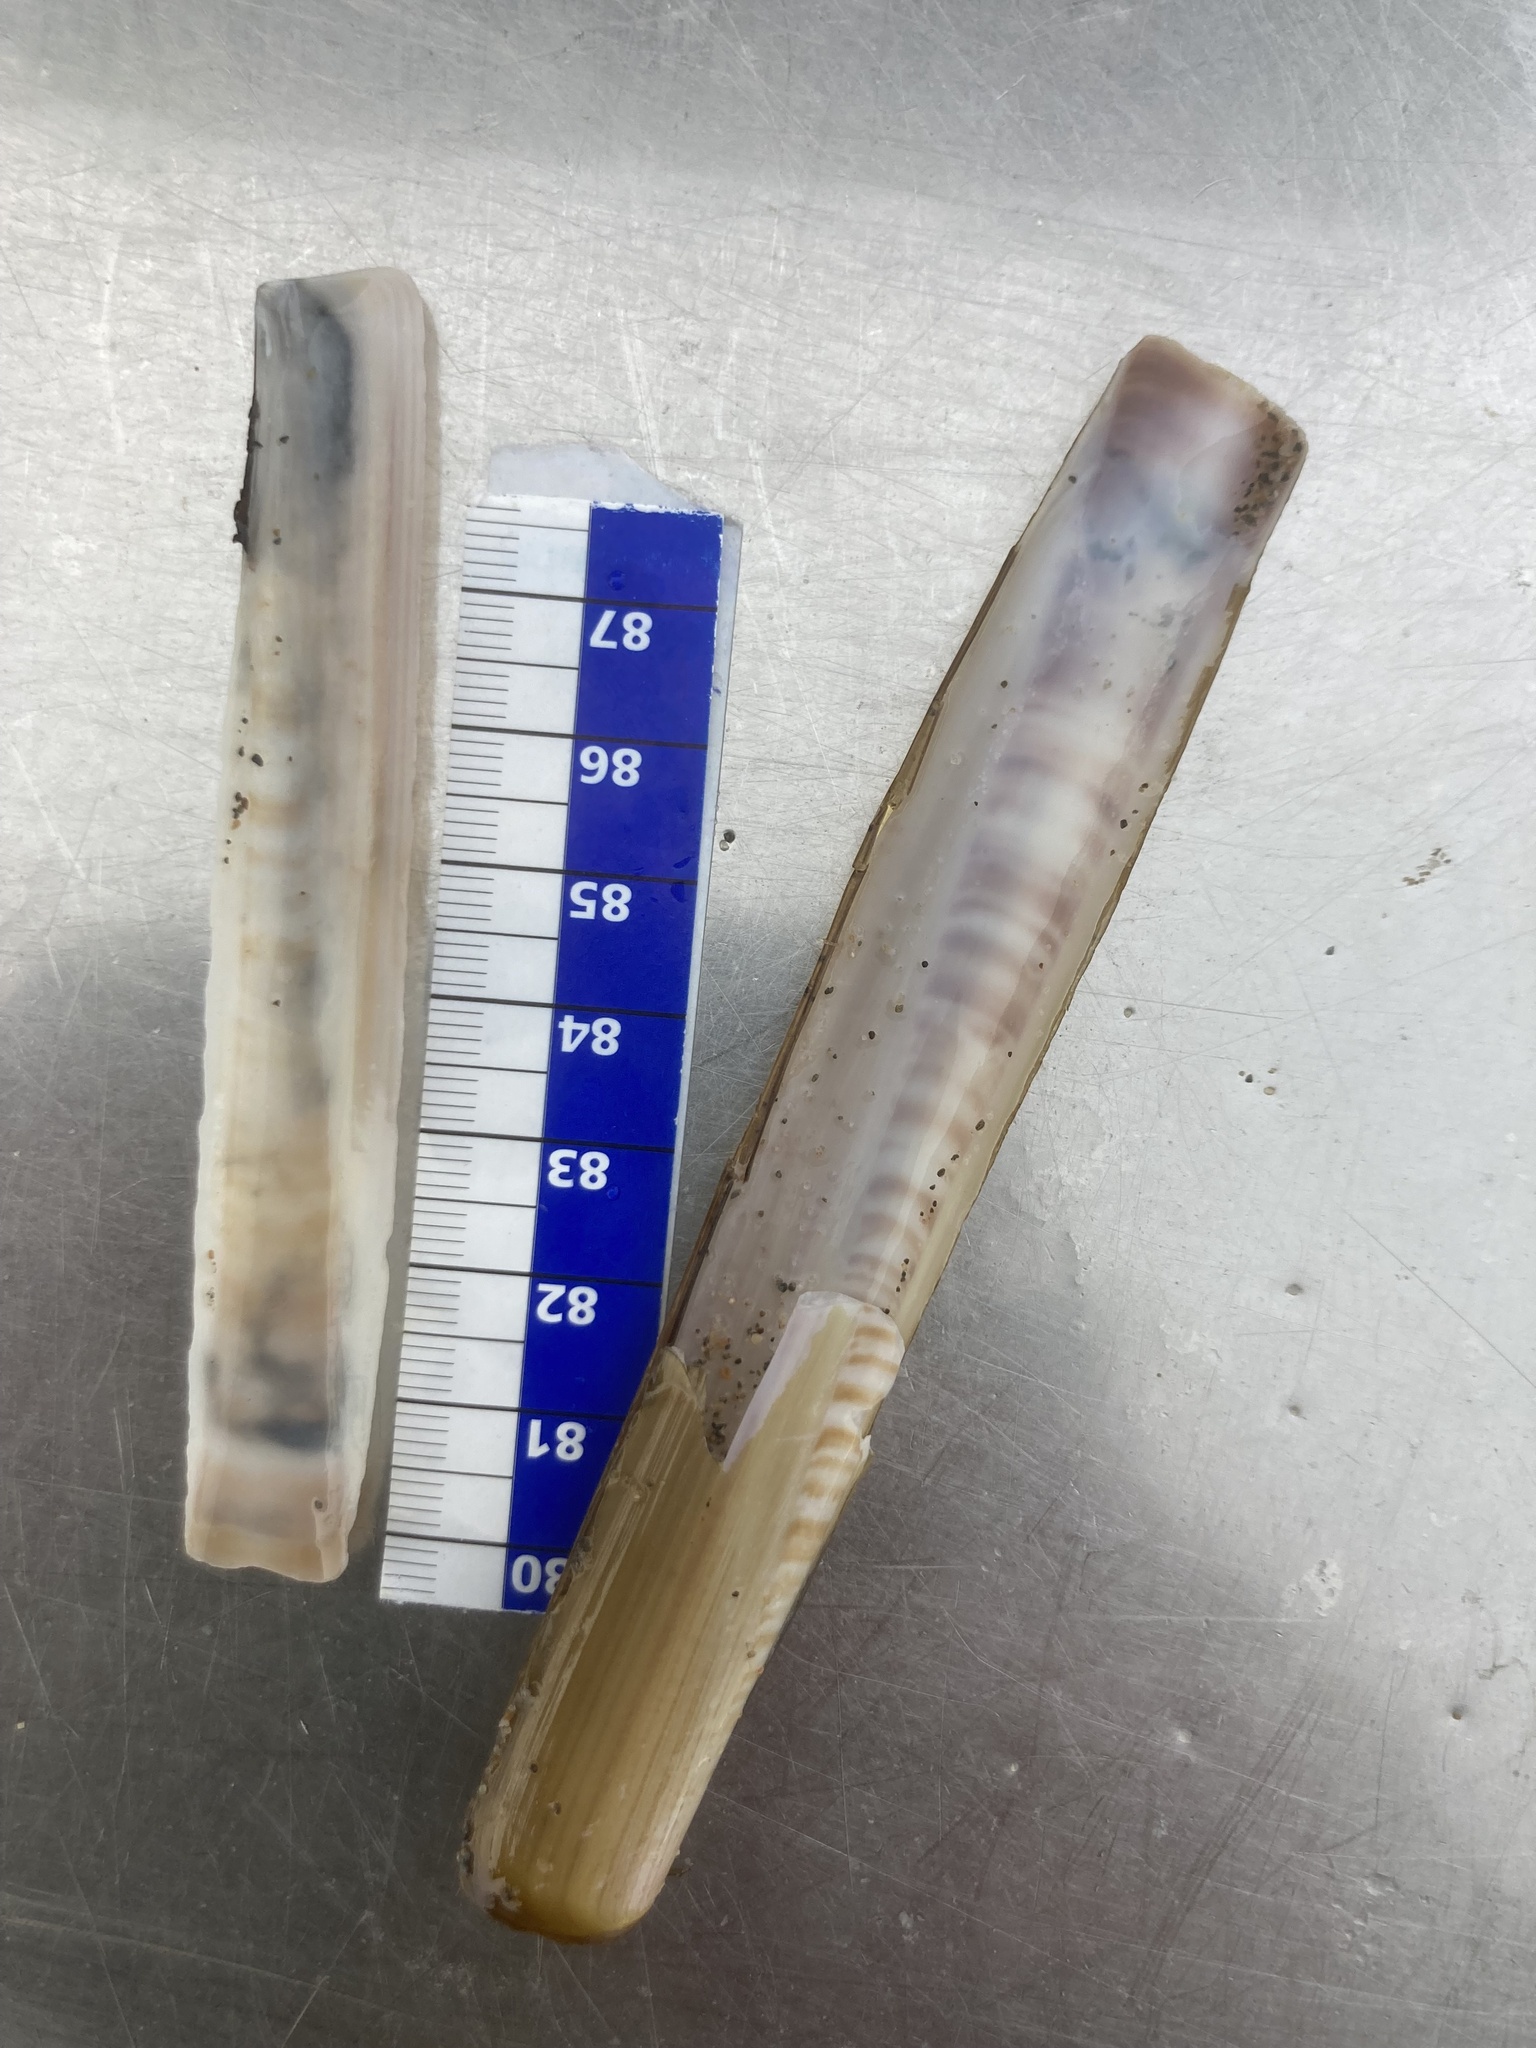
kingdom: Animalia
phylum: Mollusca
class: Bivalvia
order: Adapedonta
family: Pharidae
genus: Ensis
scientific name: Ensis minor
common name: Minor jackknife clam
